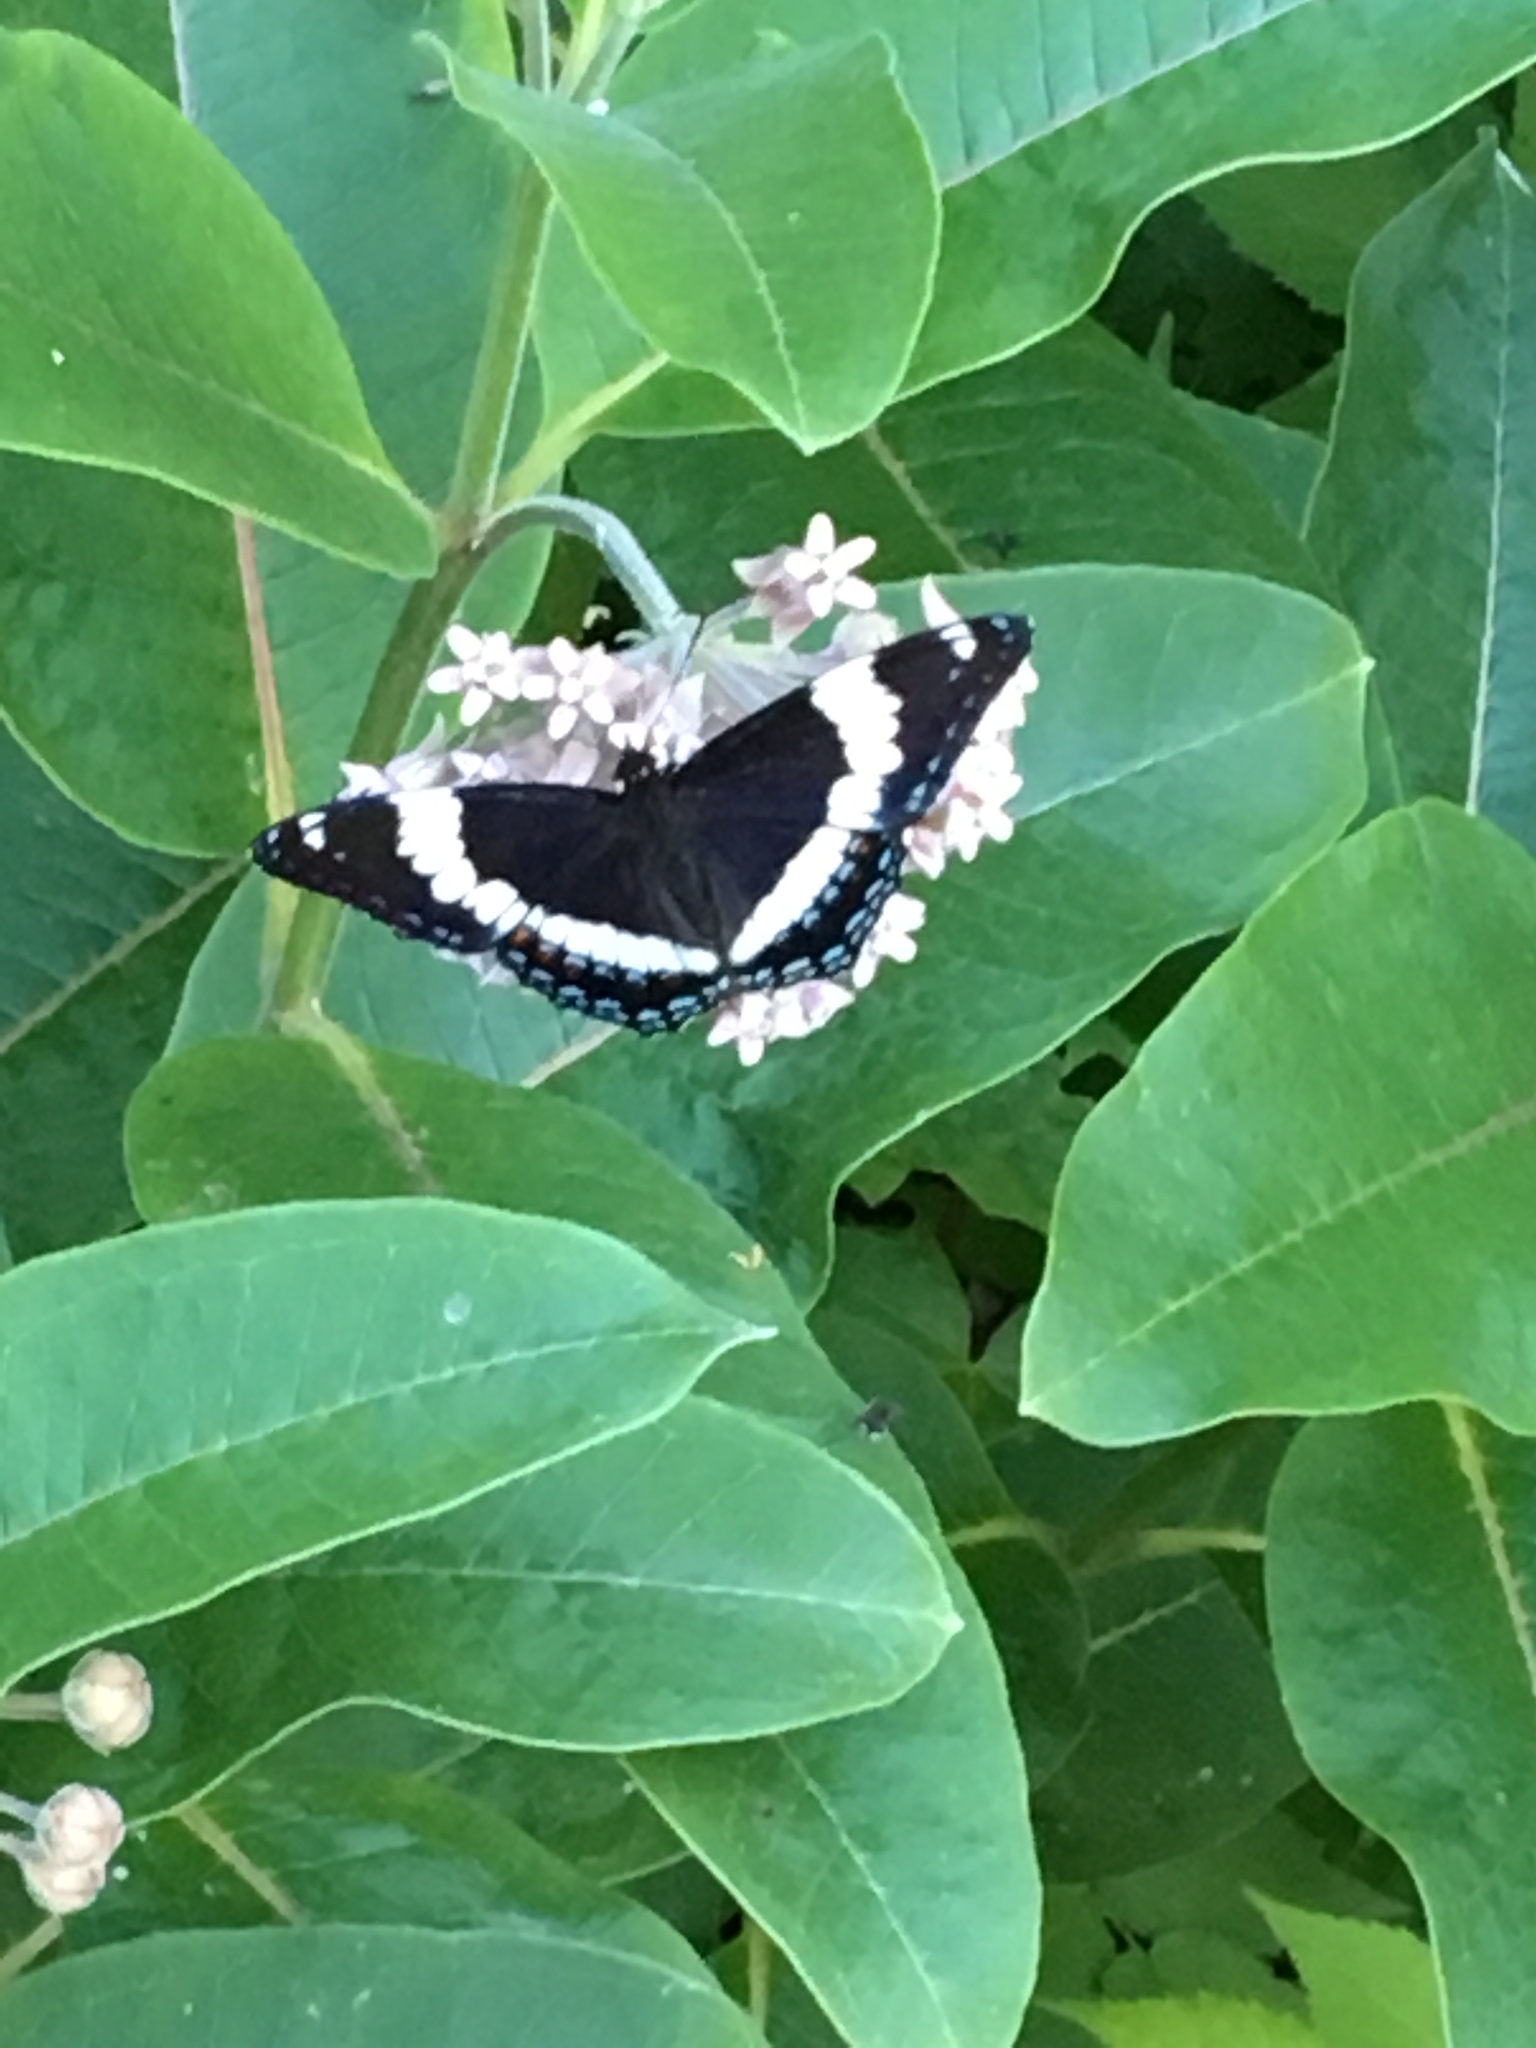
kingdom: Animalia
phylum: Arthropoda
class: Insecta
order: Lepidoptera
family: Nymphalidae
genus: Limenitis
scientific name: Limenitis arthemis
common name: Red-spotted admiral
